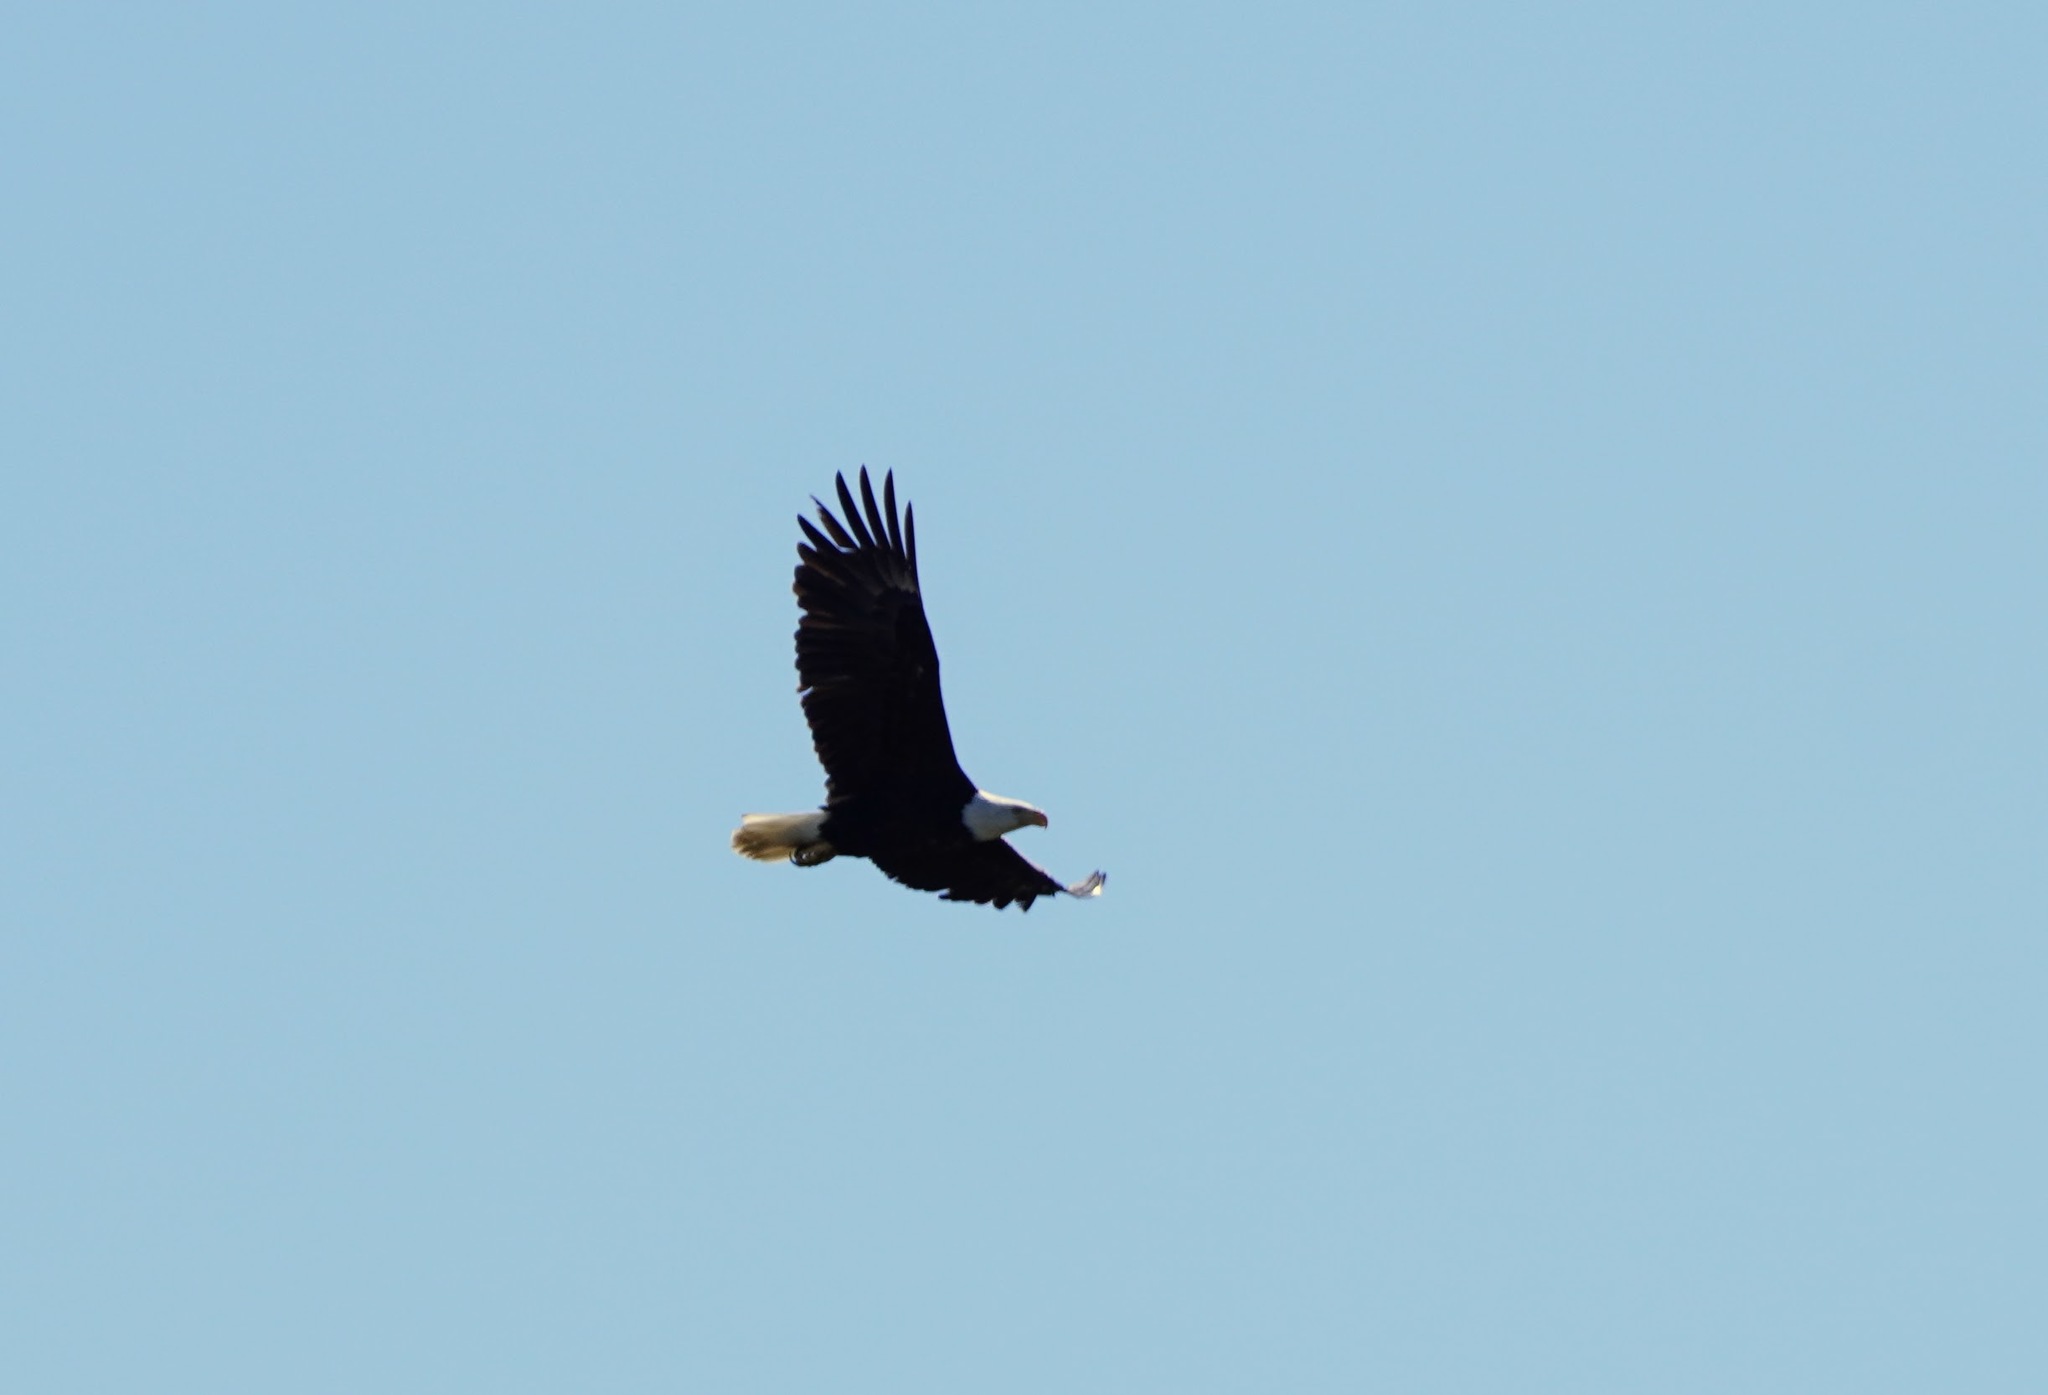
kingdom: Animalia
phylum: Chordata
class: Aves
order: Accipitriformes
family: Accipitridae
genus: Haliaeetus
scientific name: Haliaeetus leucocephalus
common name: Bald eagle
